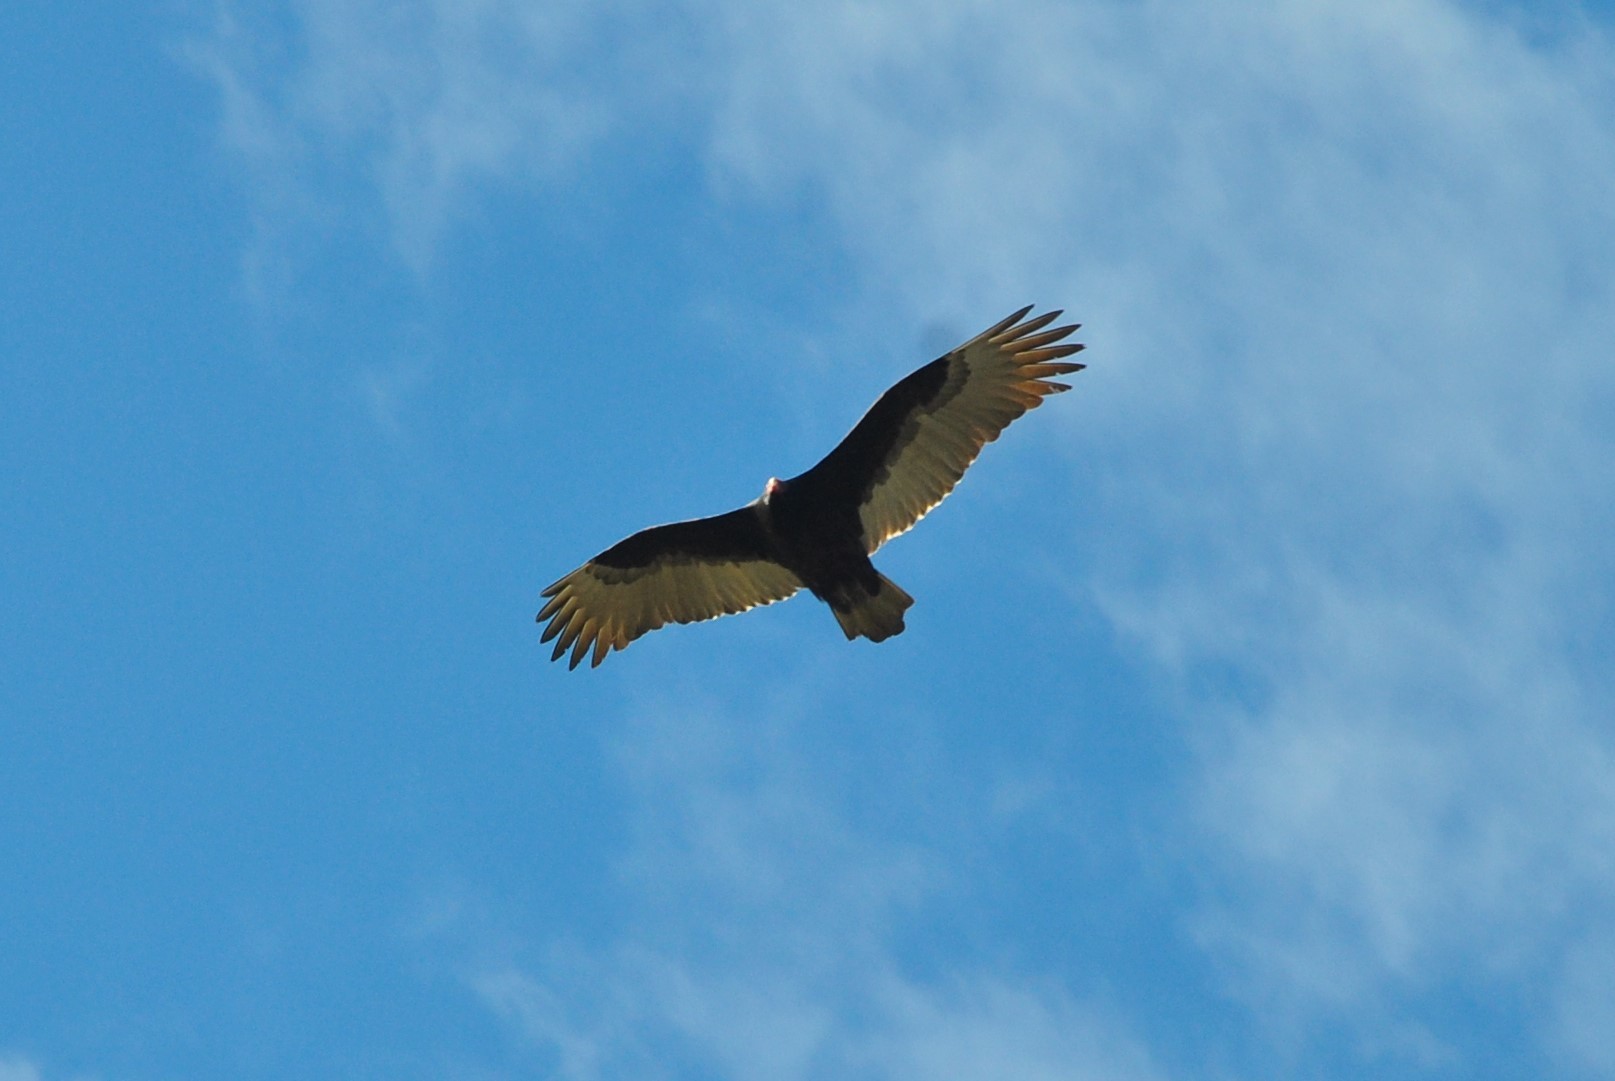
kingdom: Animalia
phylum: Chordata
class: Aves
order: Accipitriformes
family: Cathartidae
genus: Cathartes
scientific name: Cathartes aura
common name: Turkey vulture
